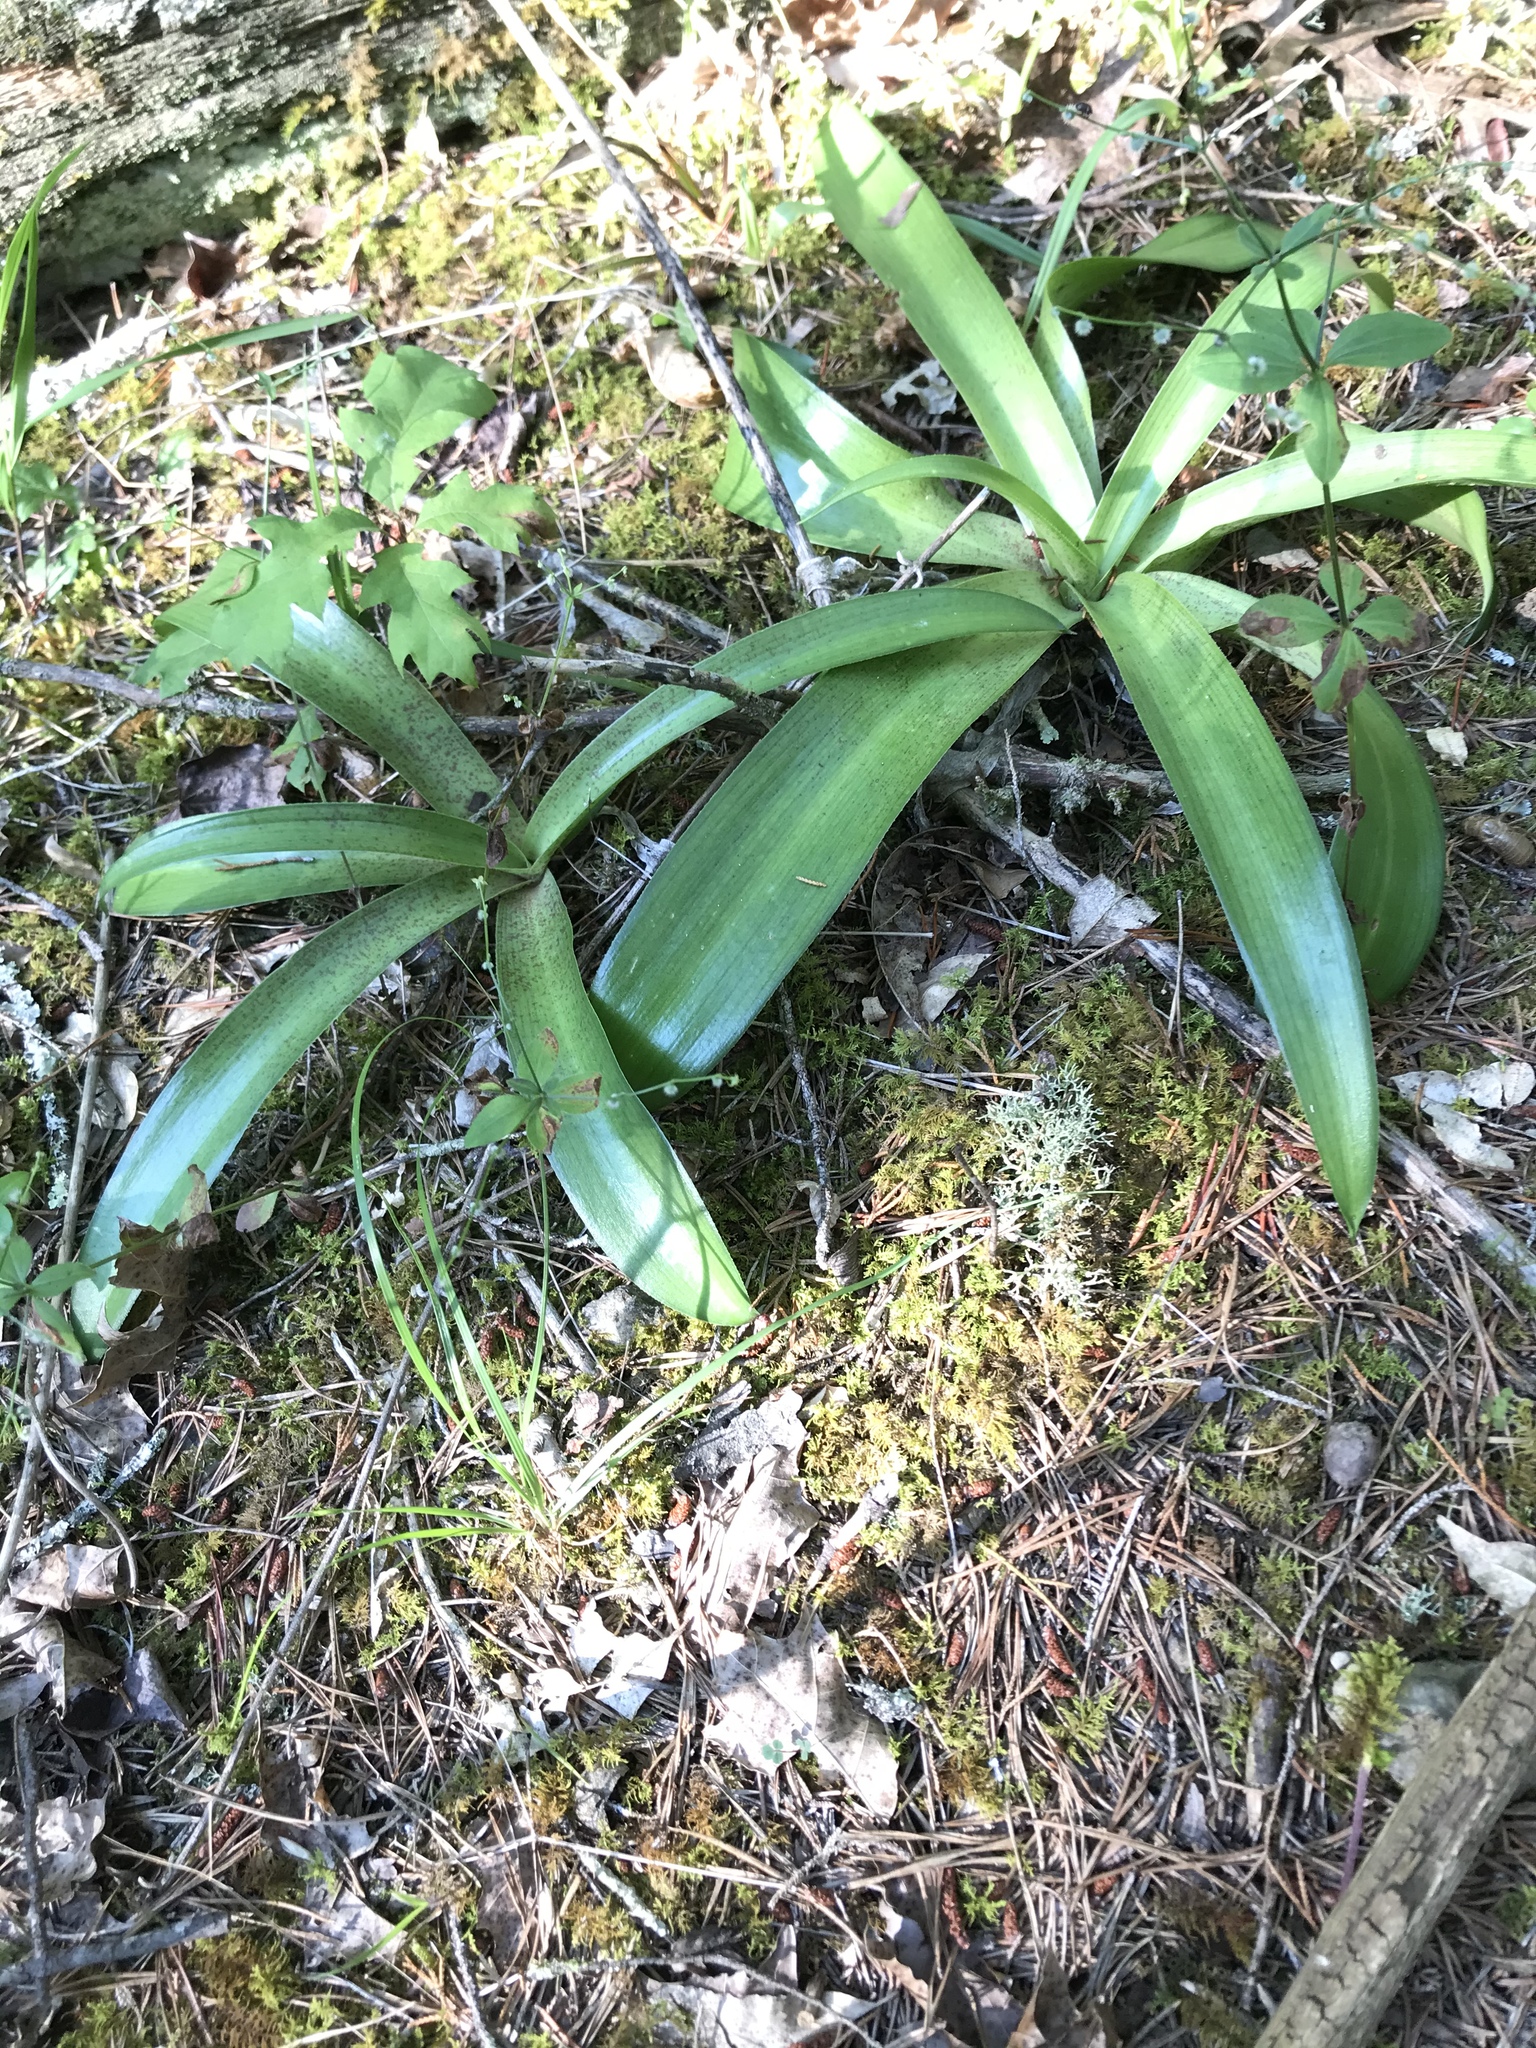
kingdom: Plantae
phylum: Tracheophyta
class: Liliopsida
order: Asparagales
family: Asparagaceae
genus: Agave
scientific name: Agave virginica
